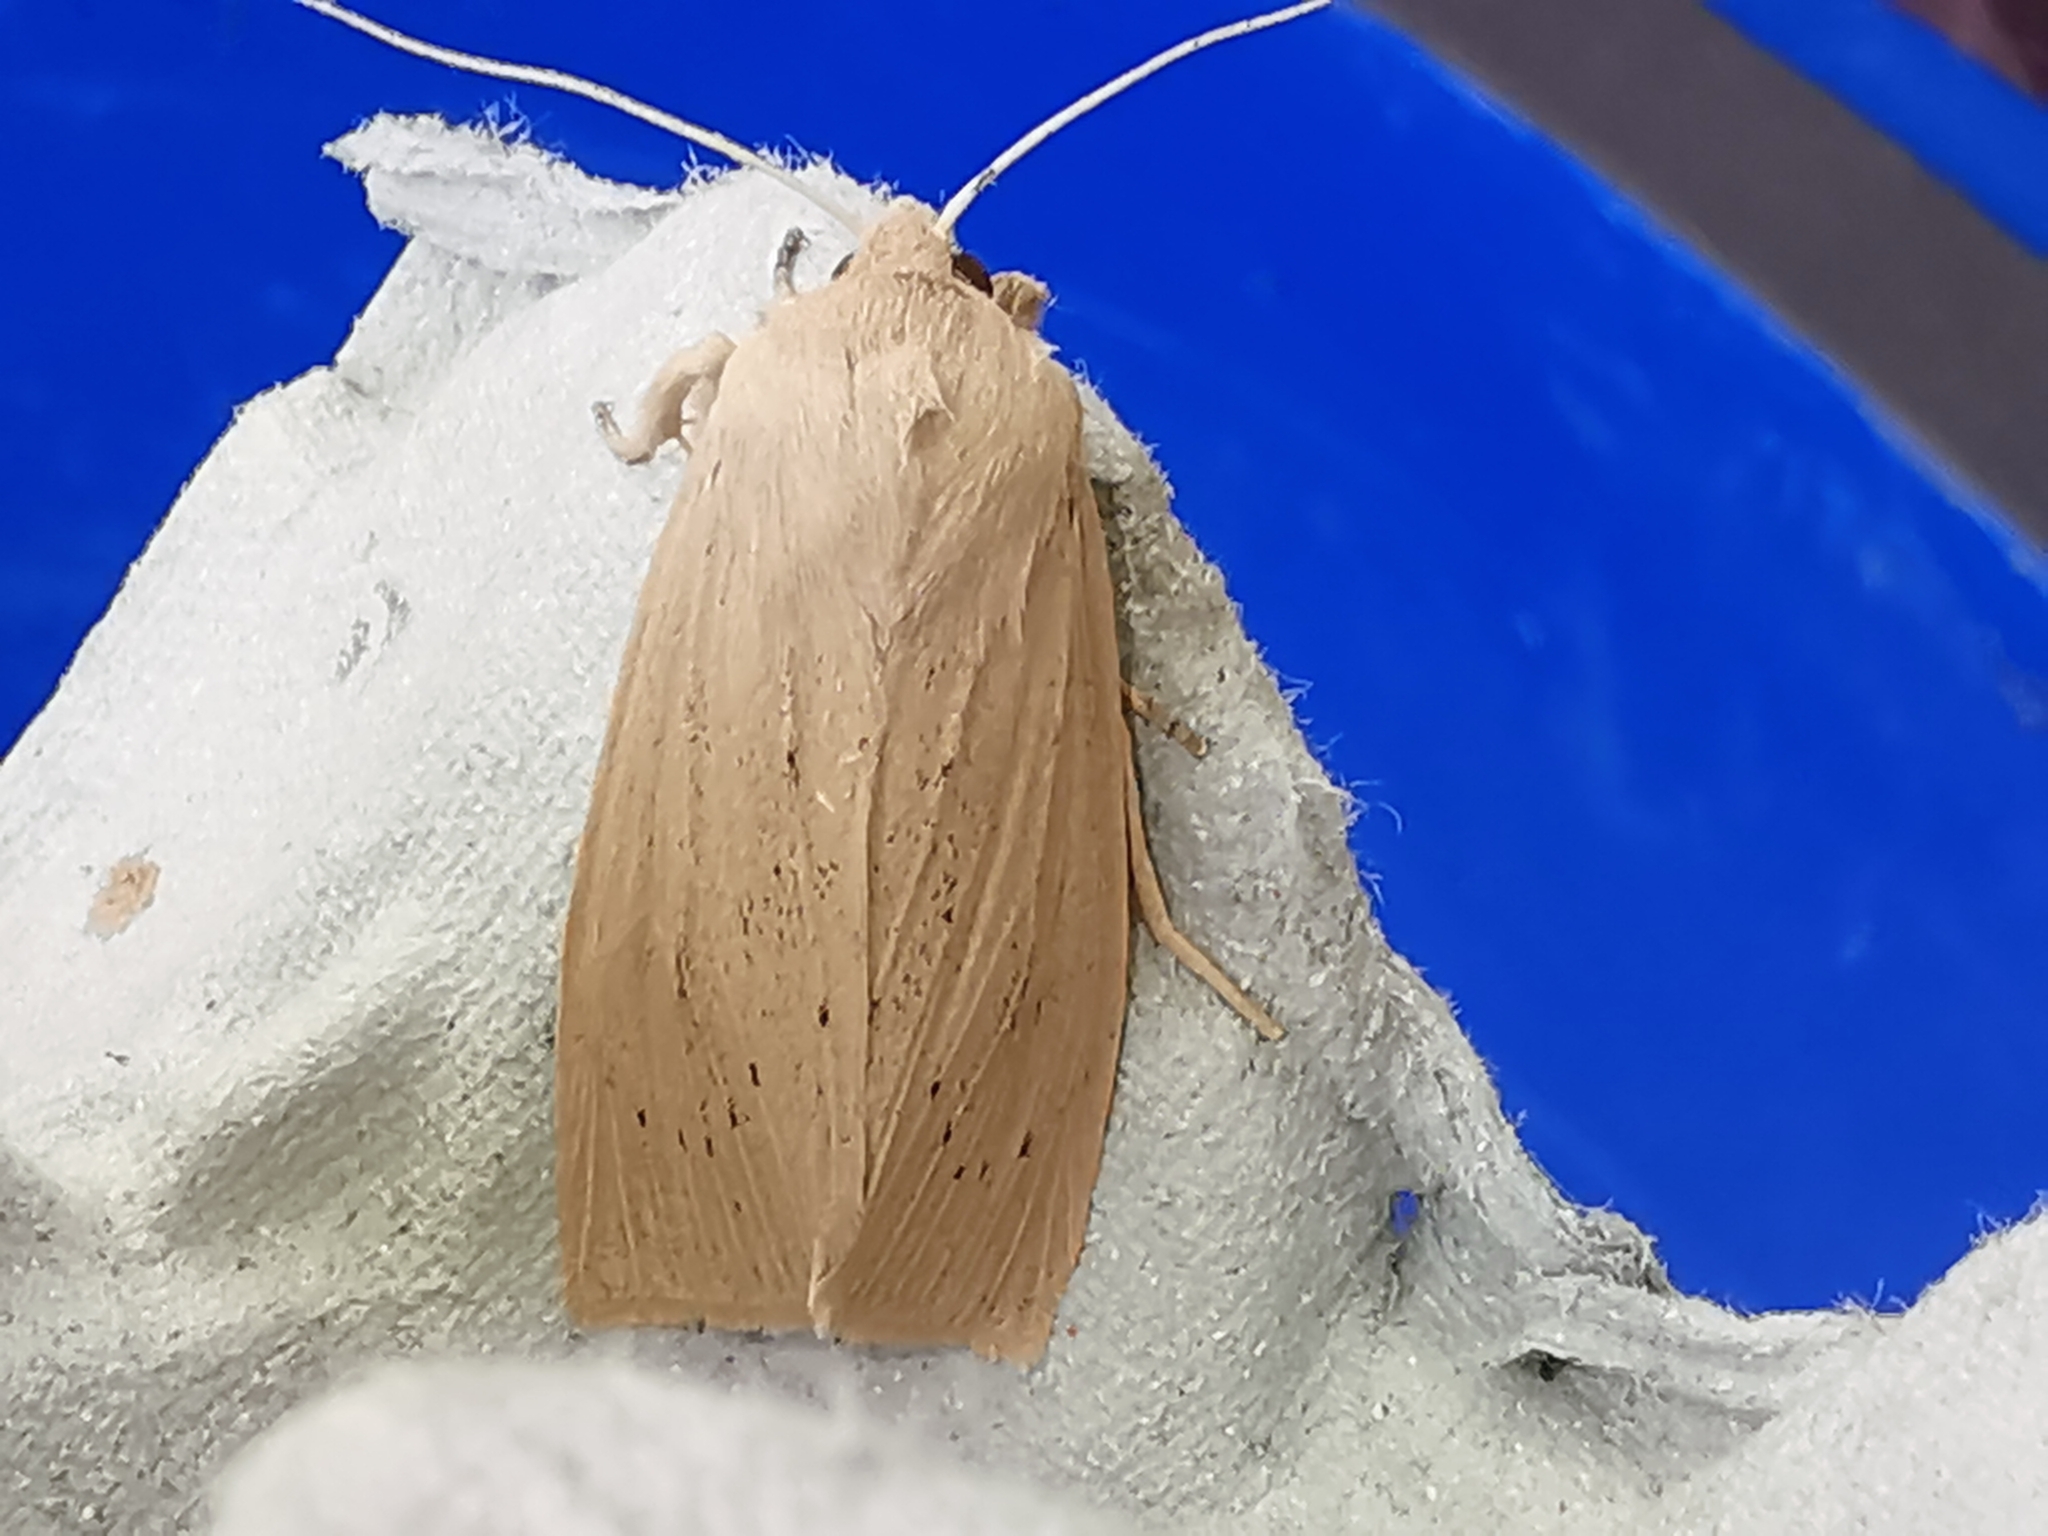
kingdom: Animalia
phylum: Arthropoda
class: Insecta
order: Lepidoptera
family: Noctuidae
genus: Rhizedra
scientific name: Rhizedra lutosa
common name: Large wainscot
